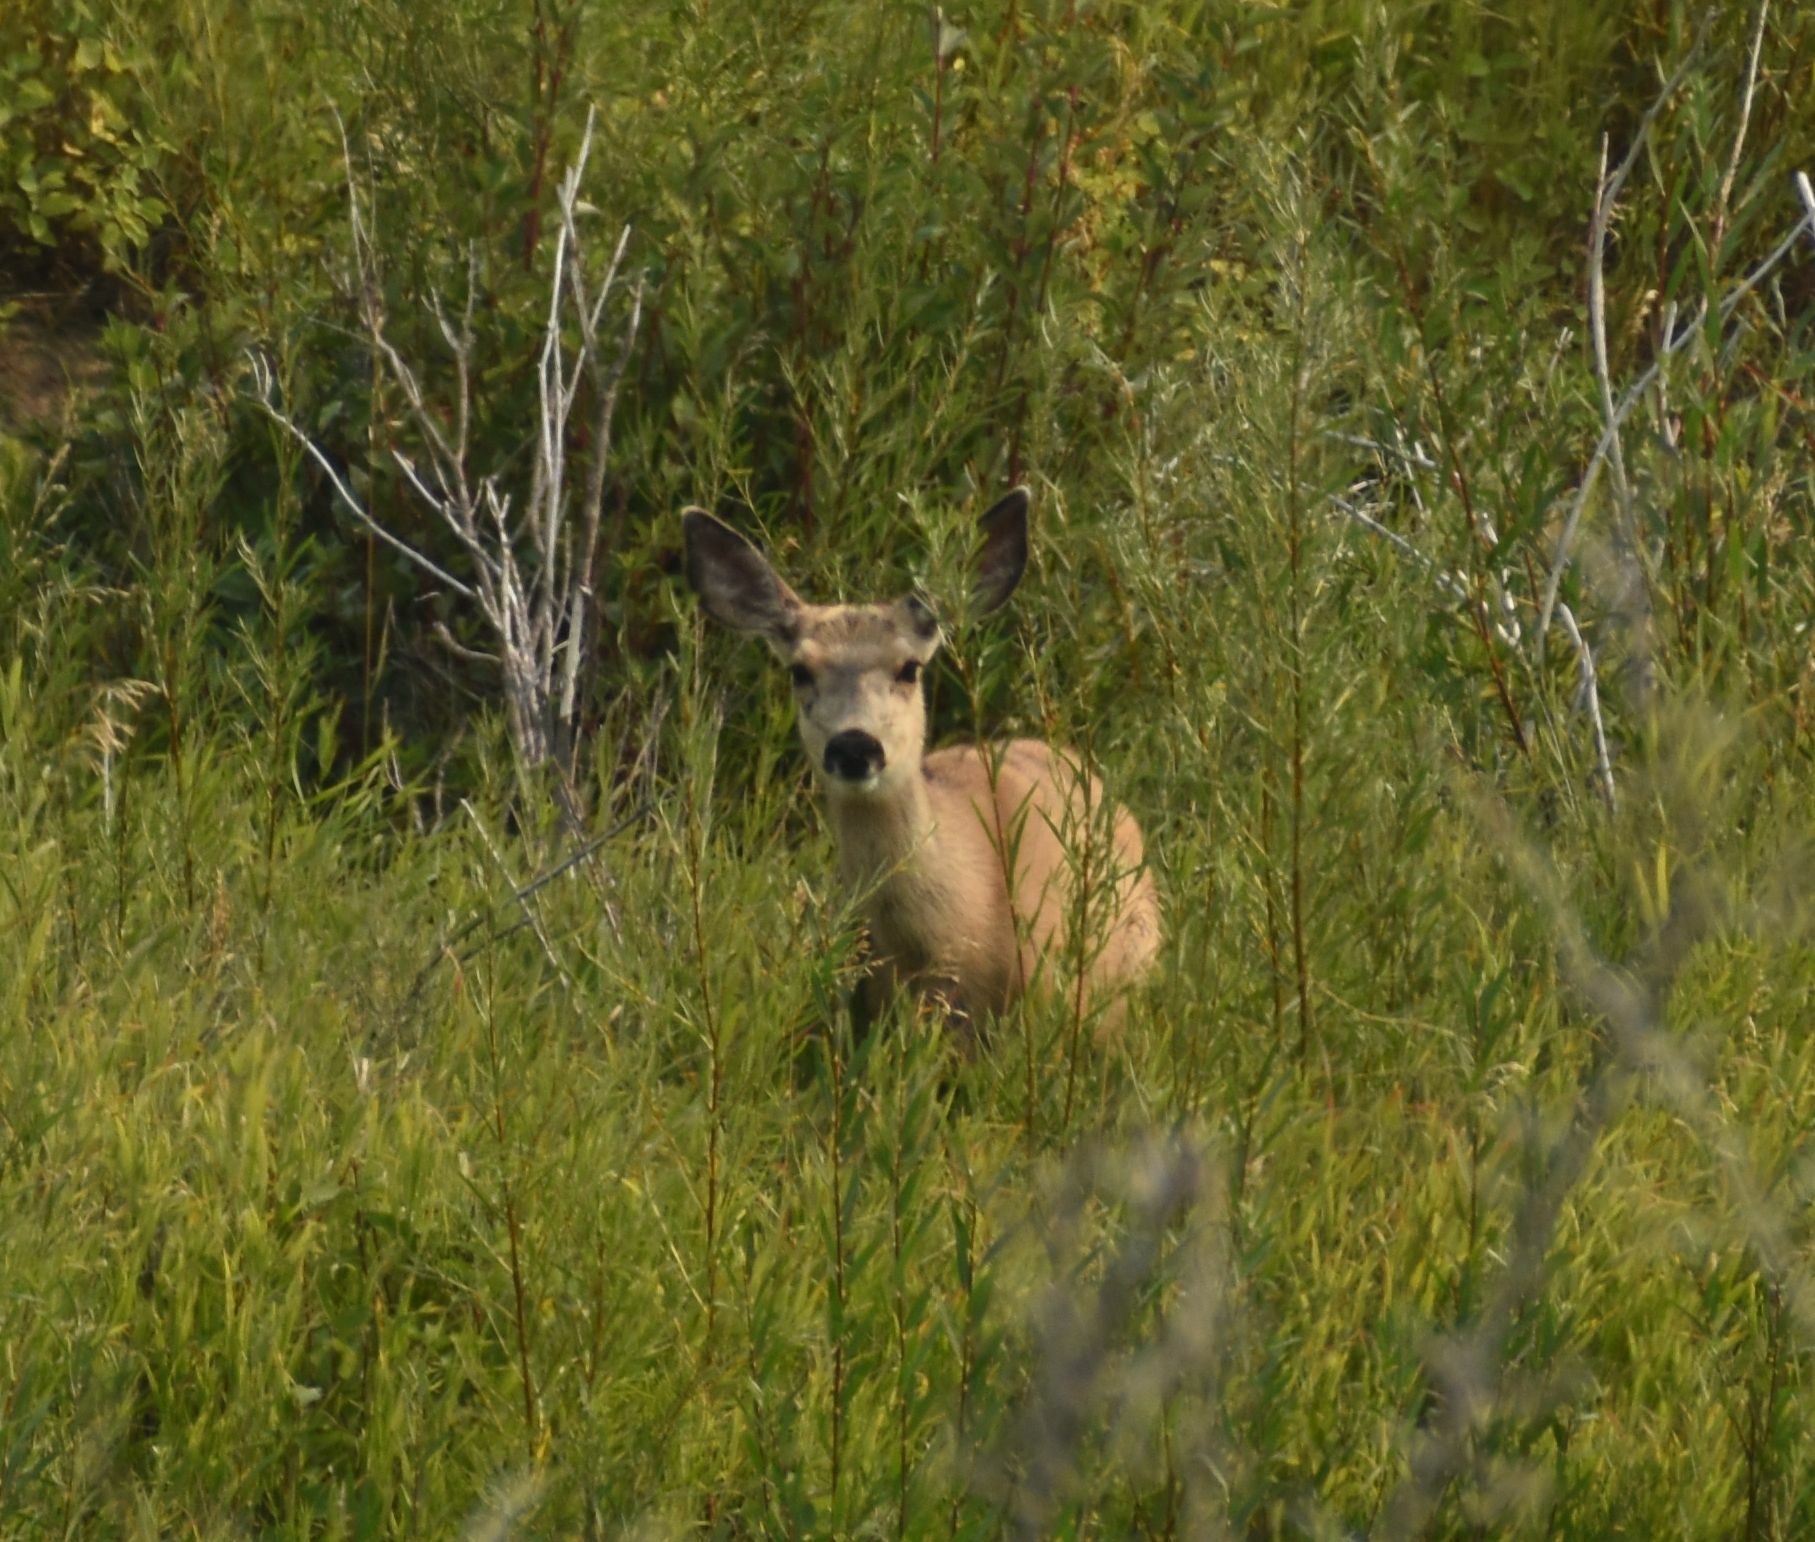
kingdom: Animalia
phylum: Chordata
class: Mammalia
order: Artiodactyla
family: Cervidae
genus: Odocoileus
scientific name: Odocoileus hemionus
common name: Mule deer
